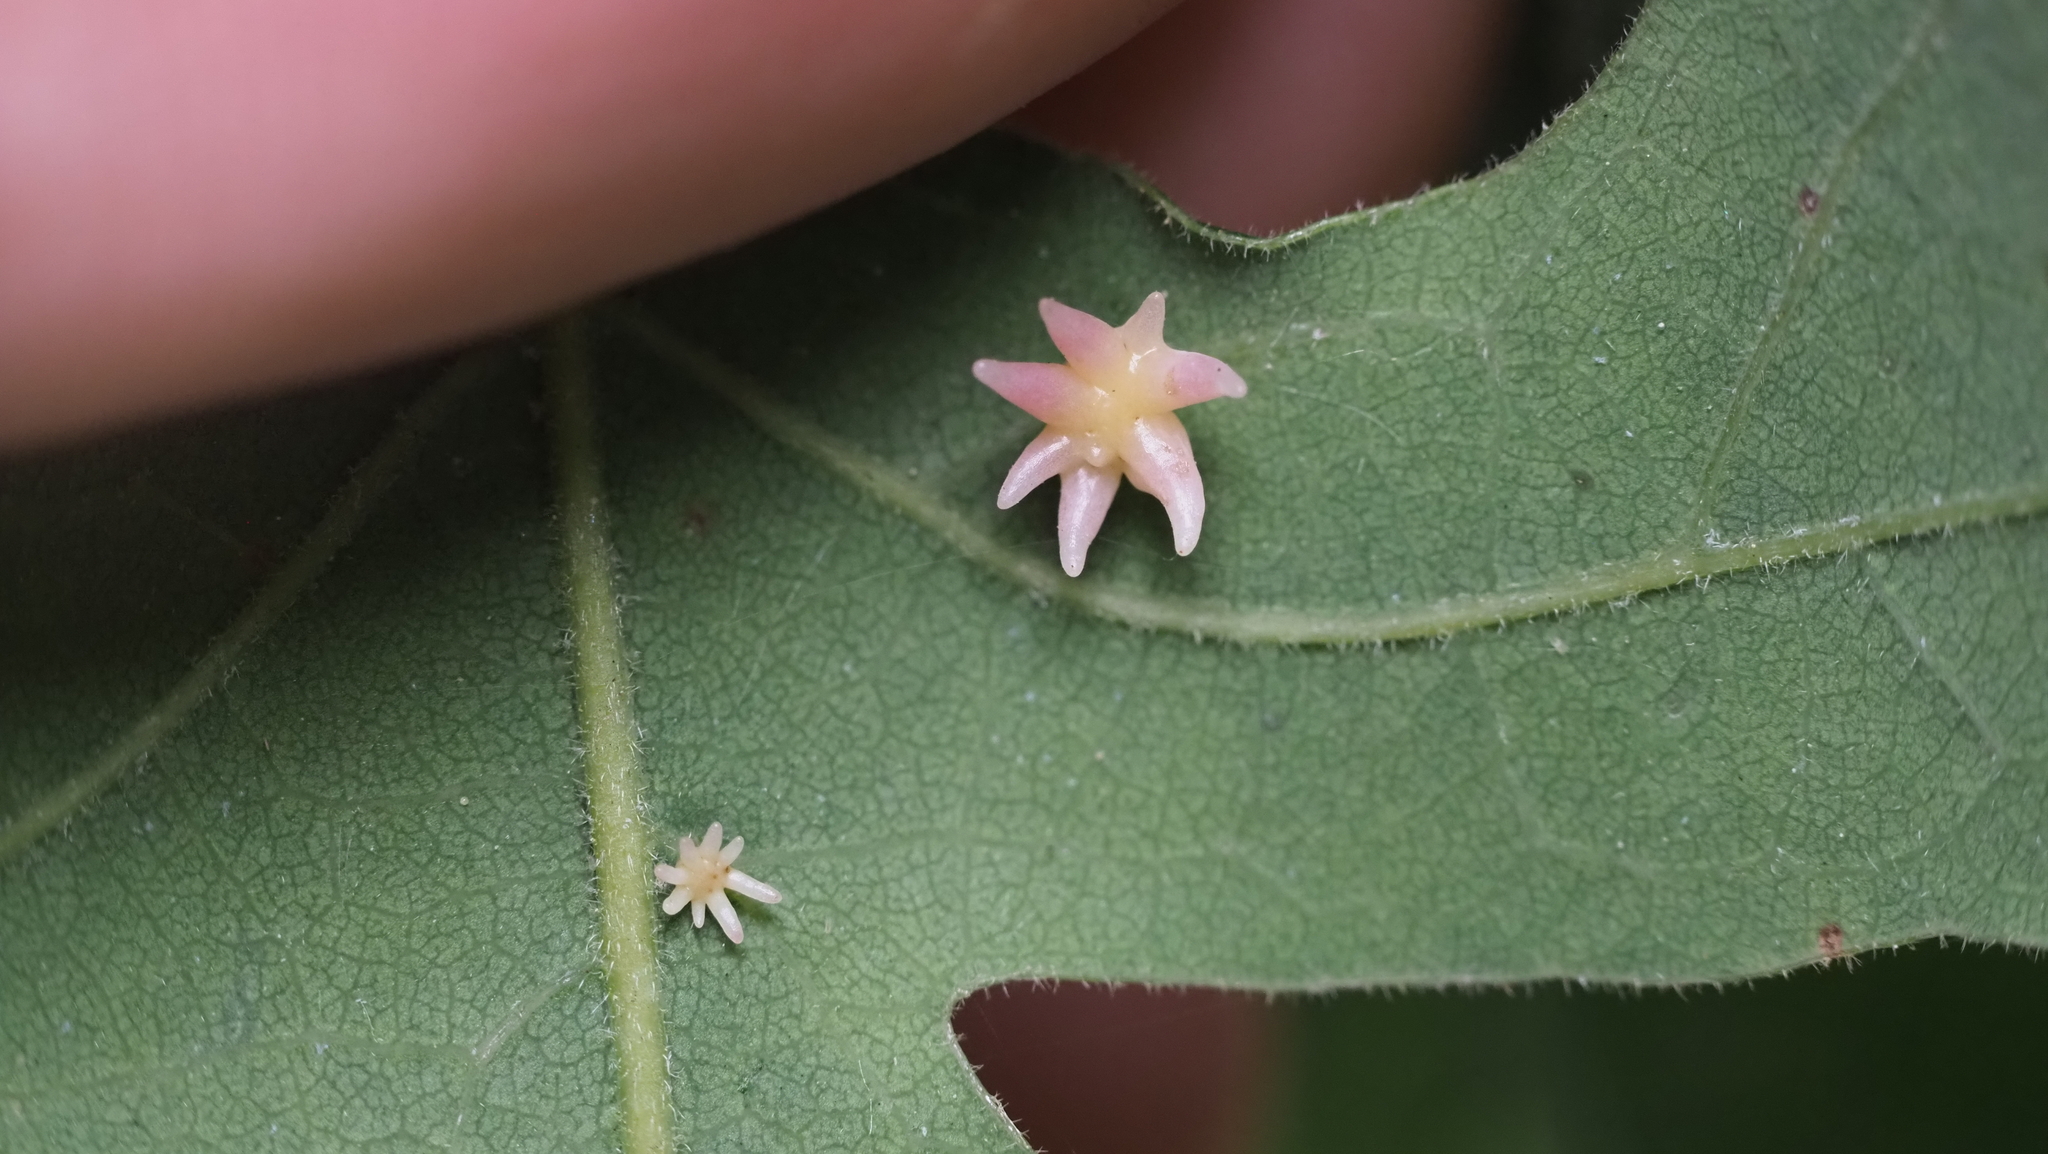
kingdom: Animalia
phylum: Arthropoda
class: Insecta
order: Hymenoptera
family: Cynipidae
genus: Cynips
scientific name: Cynips douglasi
